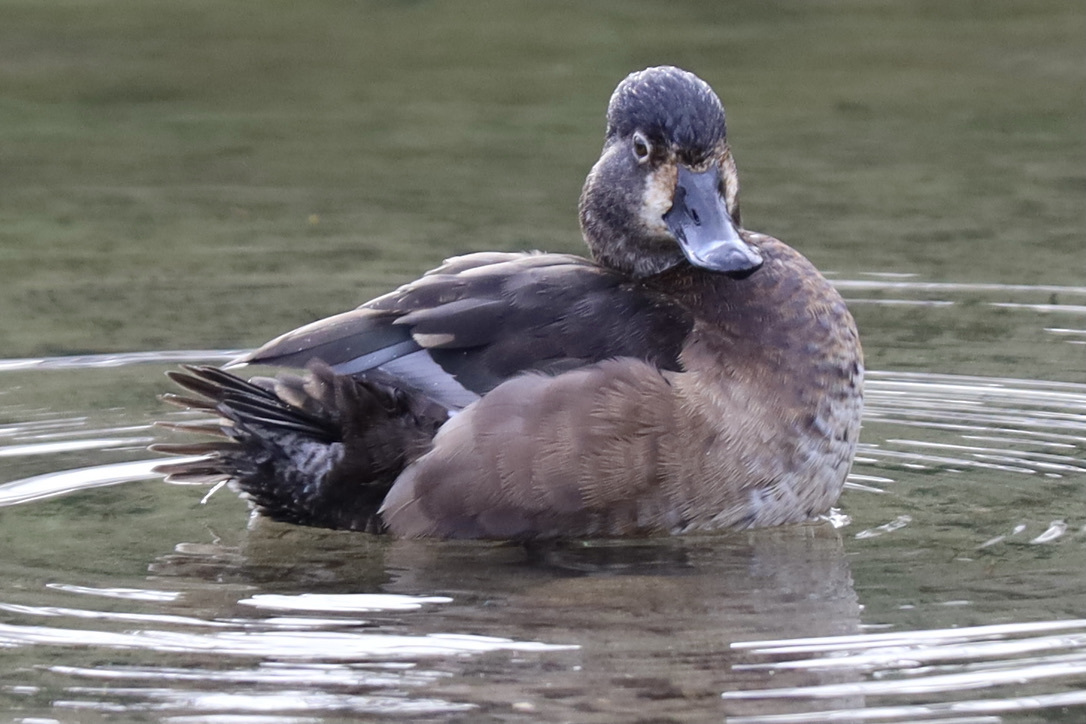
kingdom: Animalia
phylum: Chordata
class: Aves
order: Anseriformes
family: Anatidae
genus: Aythya
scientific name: Aythya collaris
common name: Ring-necked duck
